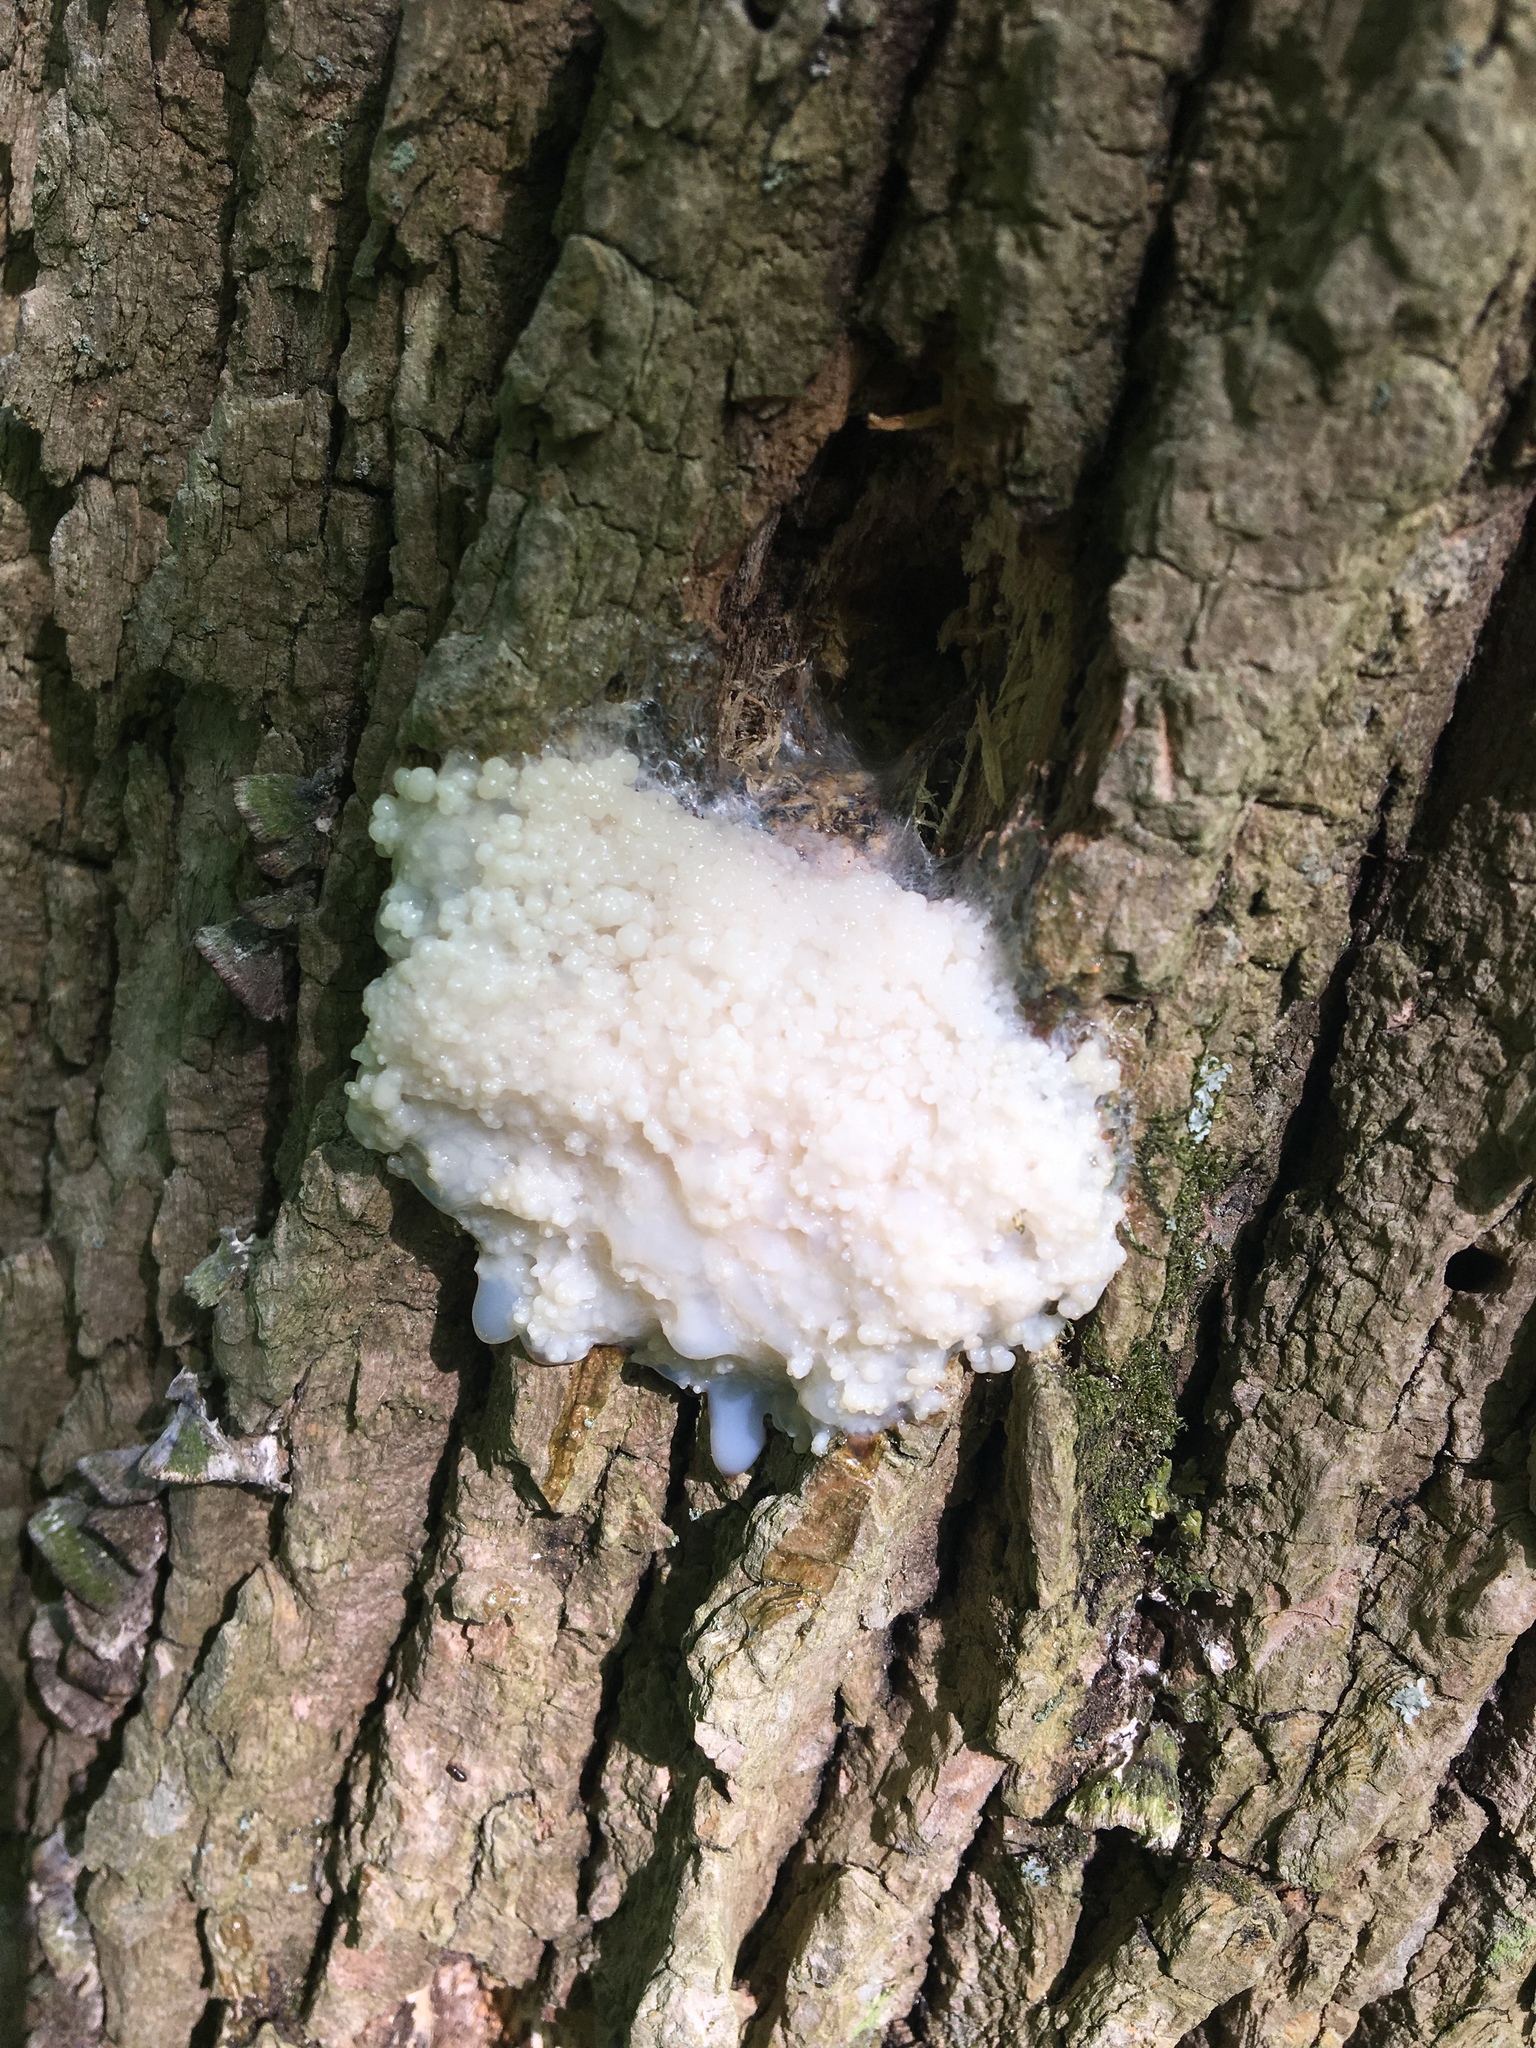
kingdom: Protozoa
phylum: Mycetozoa
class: Myxomycetes
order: Cribrariales
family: Tubiferaceae
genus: Reticularia
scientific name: Reticularia lycoperdon
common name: False puffball
